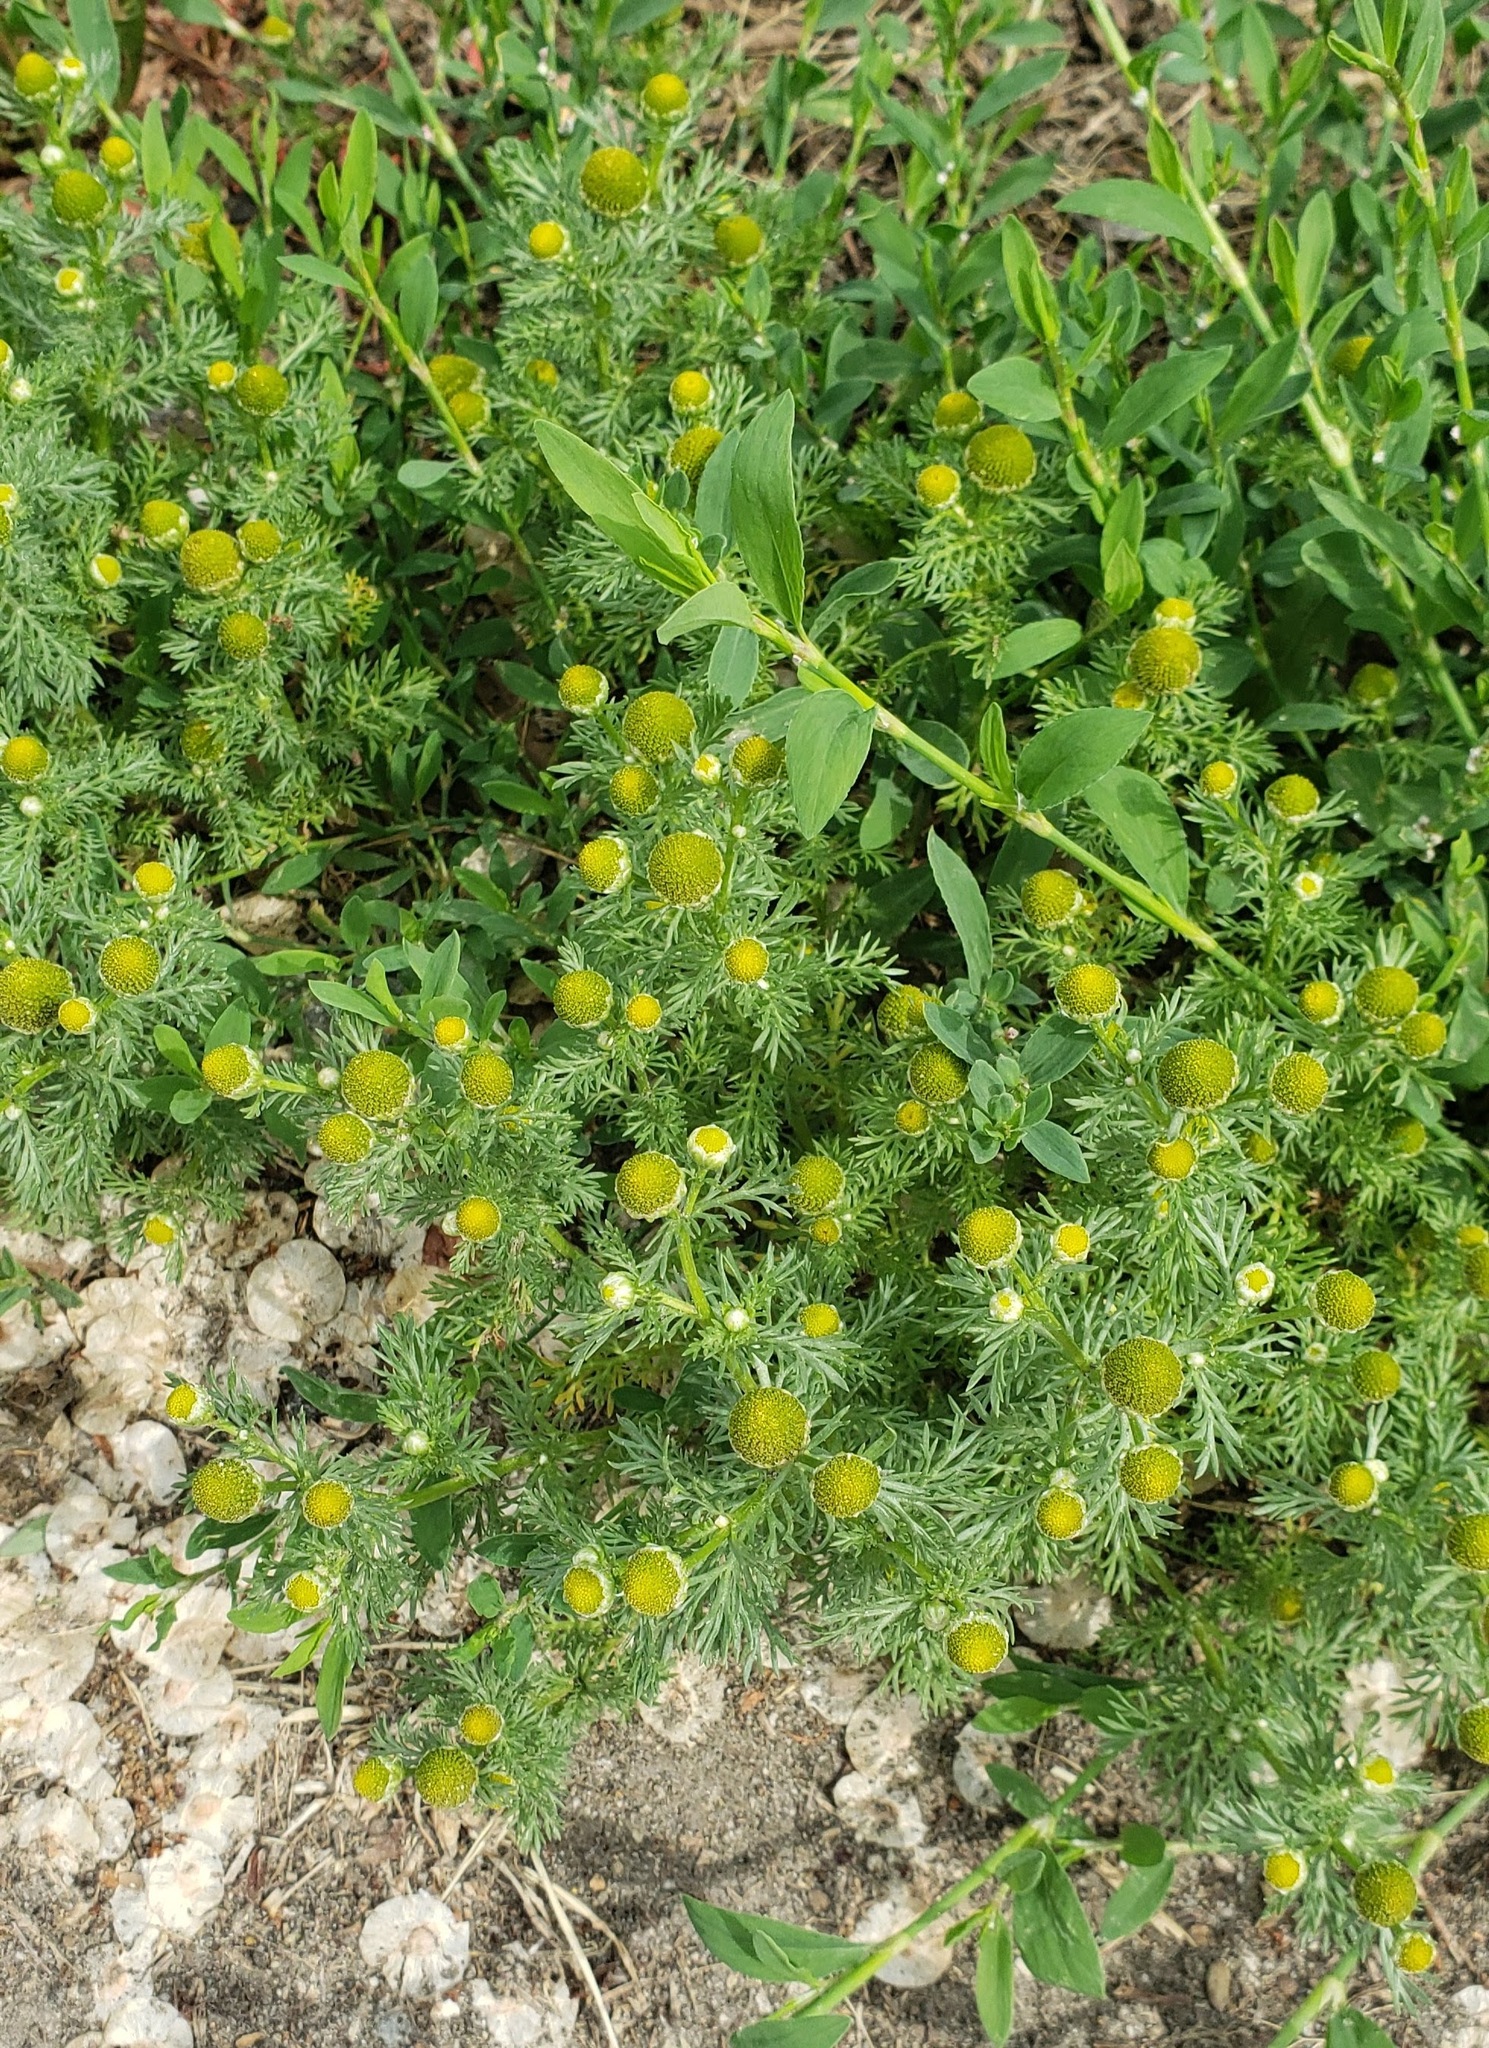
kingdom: Plantae
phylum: Tracheophyta
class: Magnoliopsida
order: Asterales
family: Asteraceae
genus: Matricaria
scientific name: Matricaria discoidea
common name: Disc mayweed
